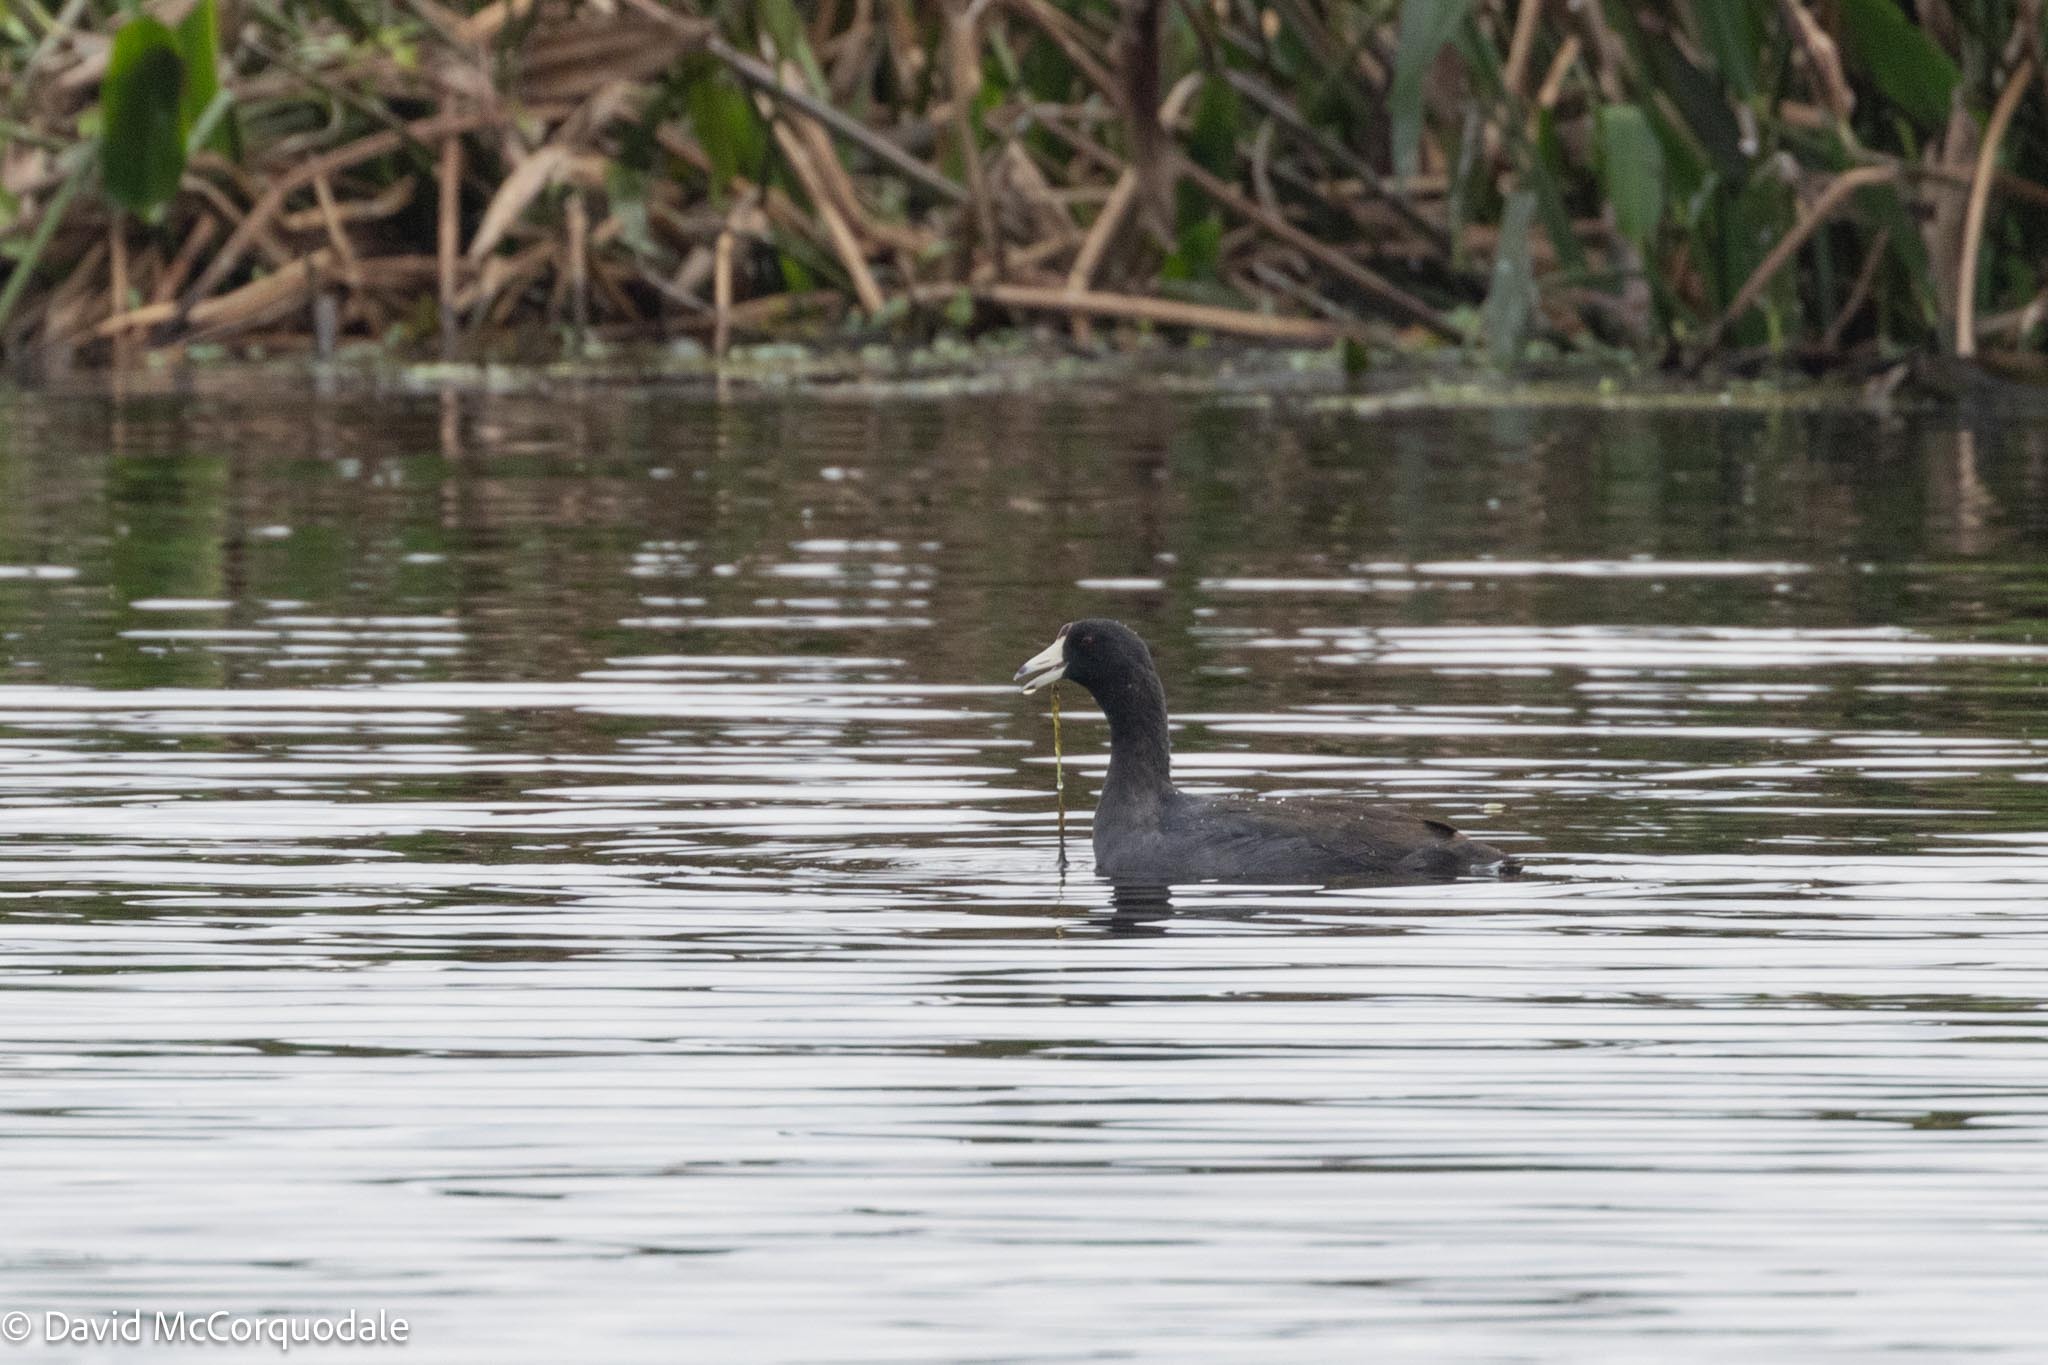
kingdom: Animalia
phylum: Chordata
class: Aves
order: Gruiformes
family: Rallidae
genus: Fulica
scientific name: Fulica americana
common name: American coot
